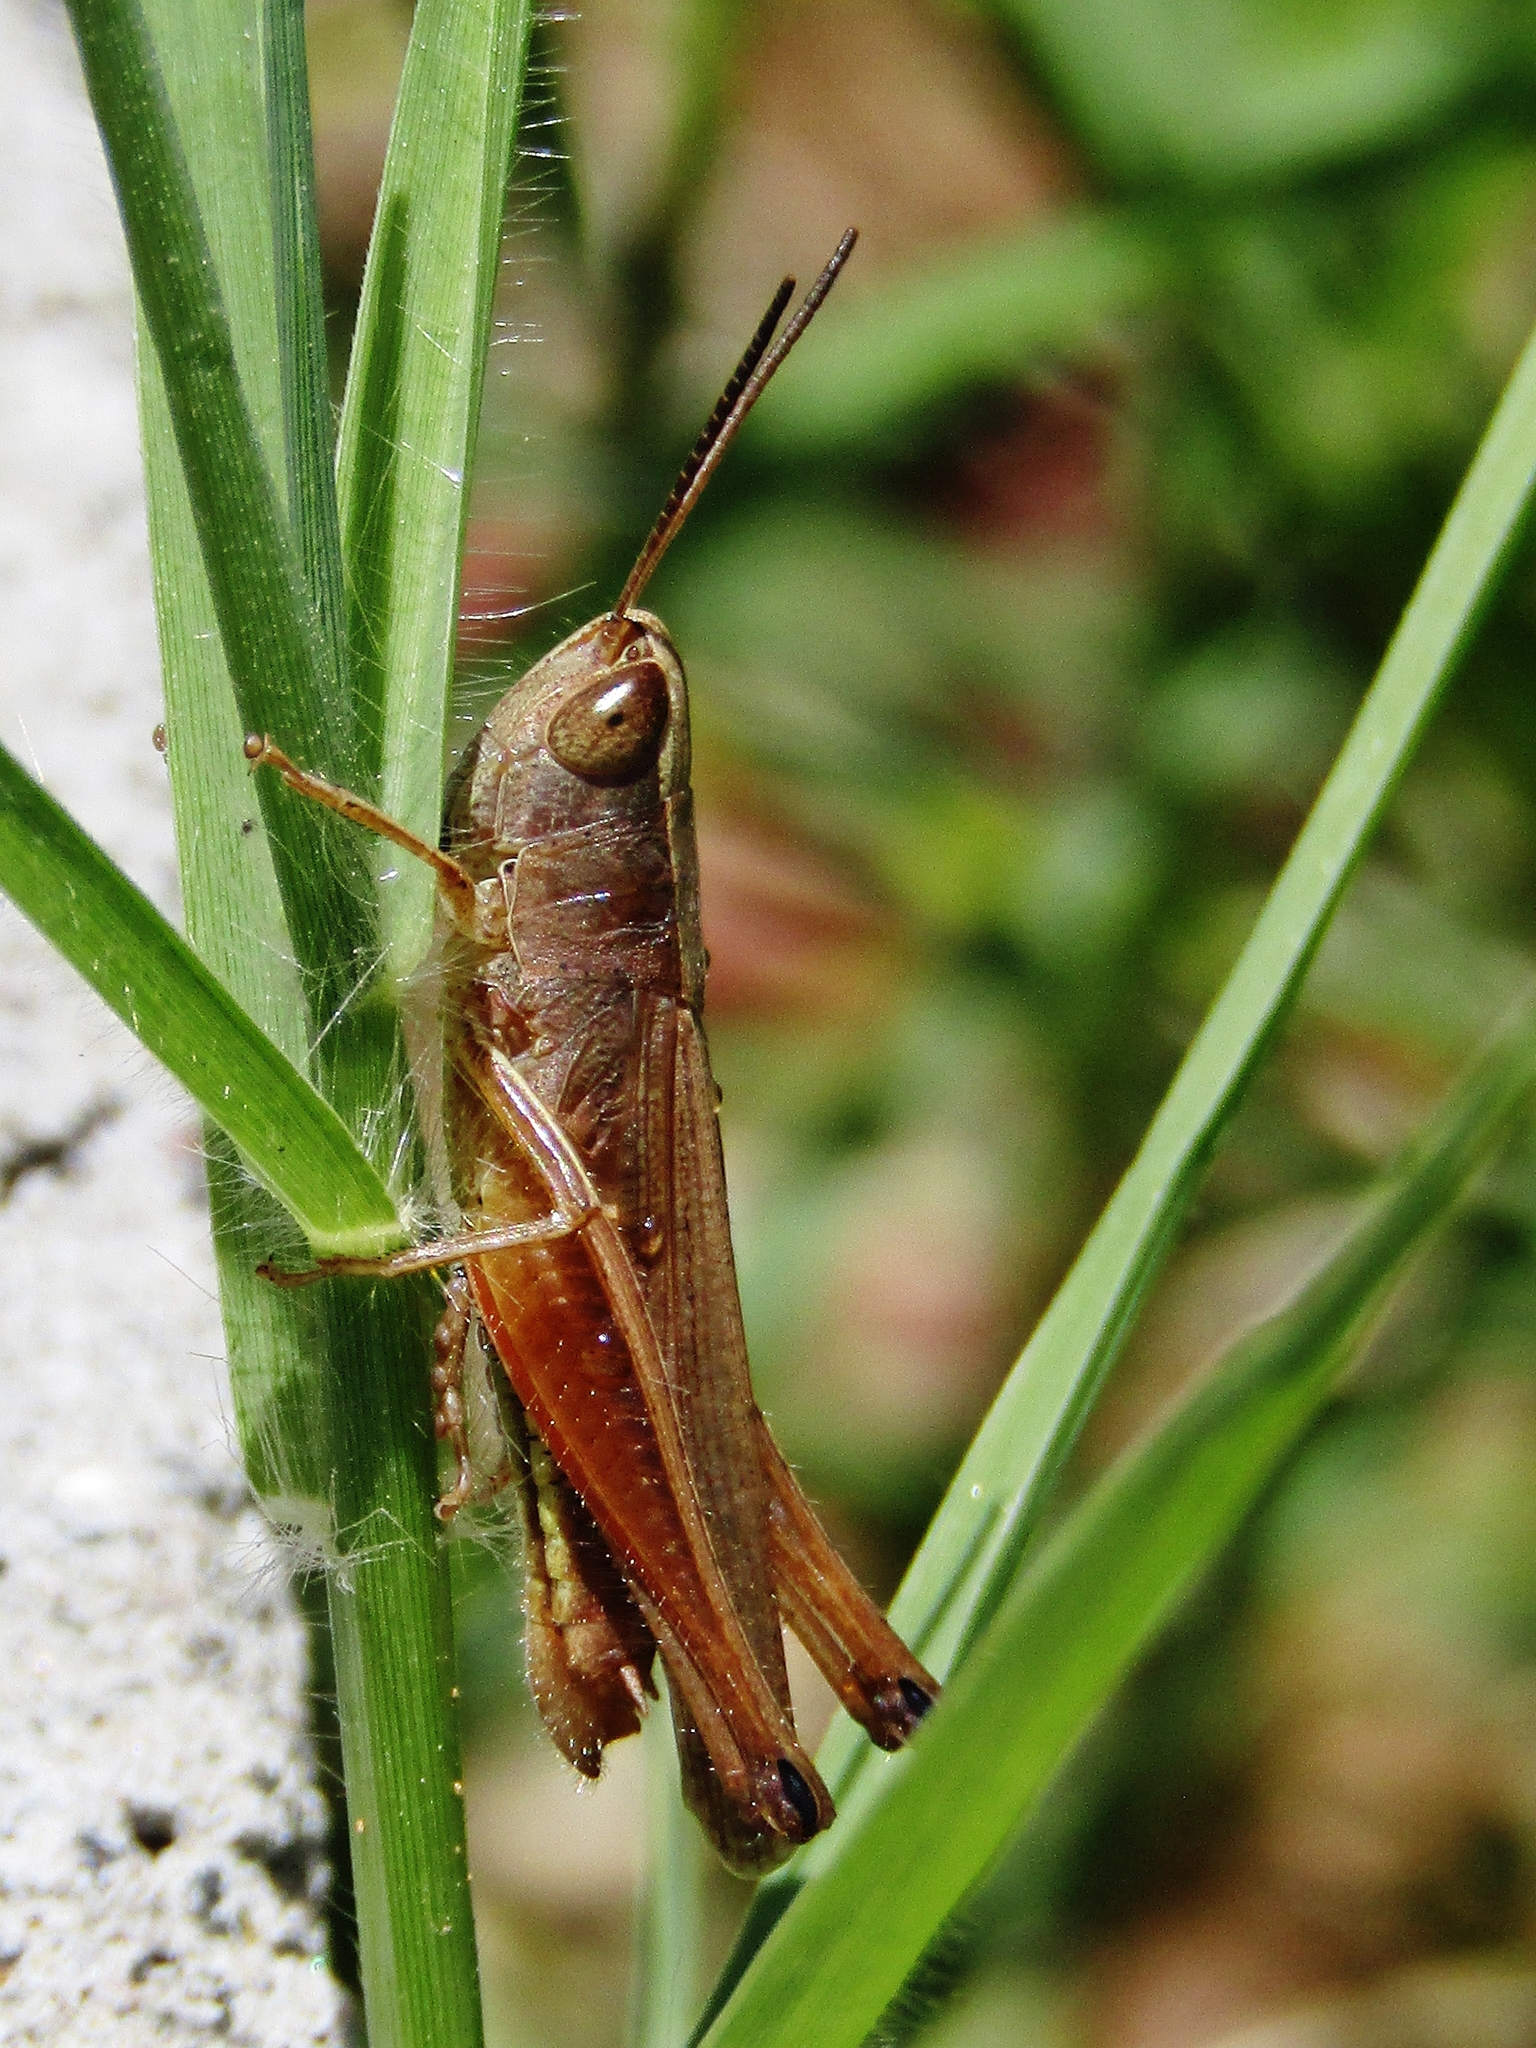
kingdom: Animalia
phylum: Arthropoda
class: Insecta
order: Orthoptera
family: Acrididae
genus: Amblytropidia
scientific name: Amblytropidia australis
